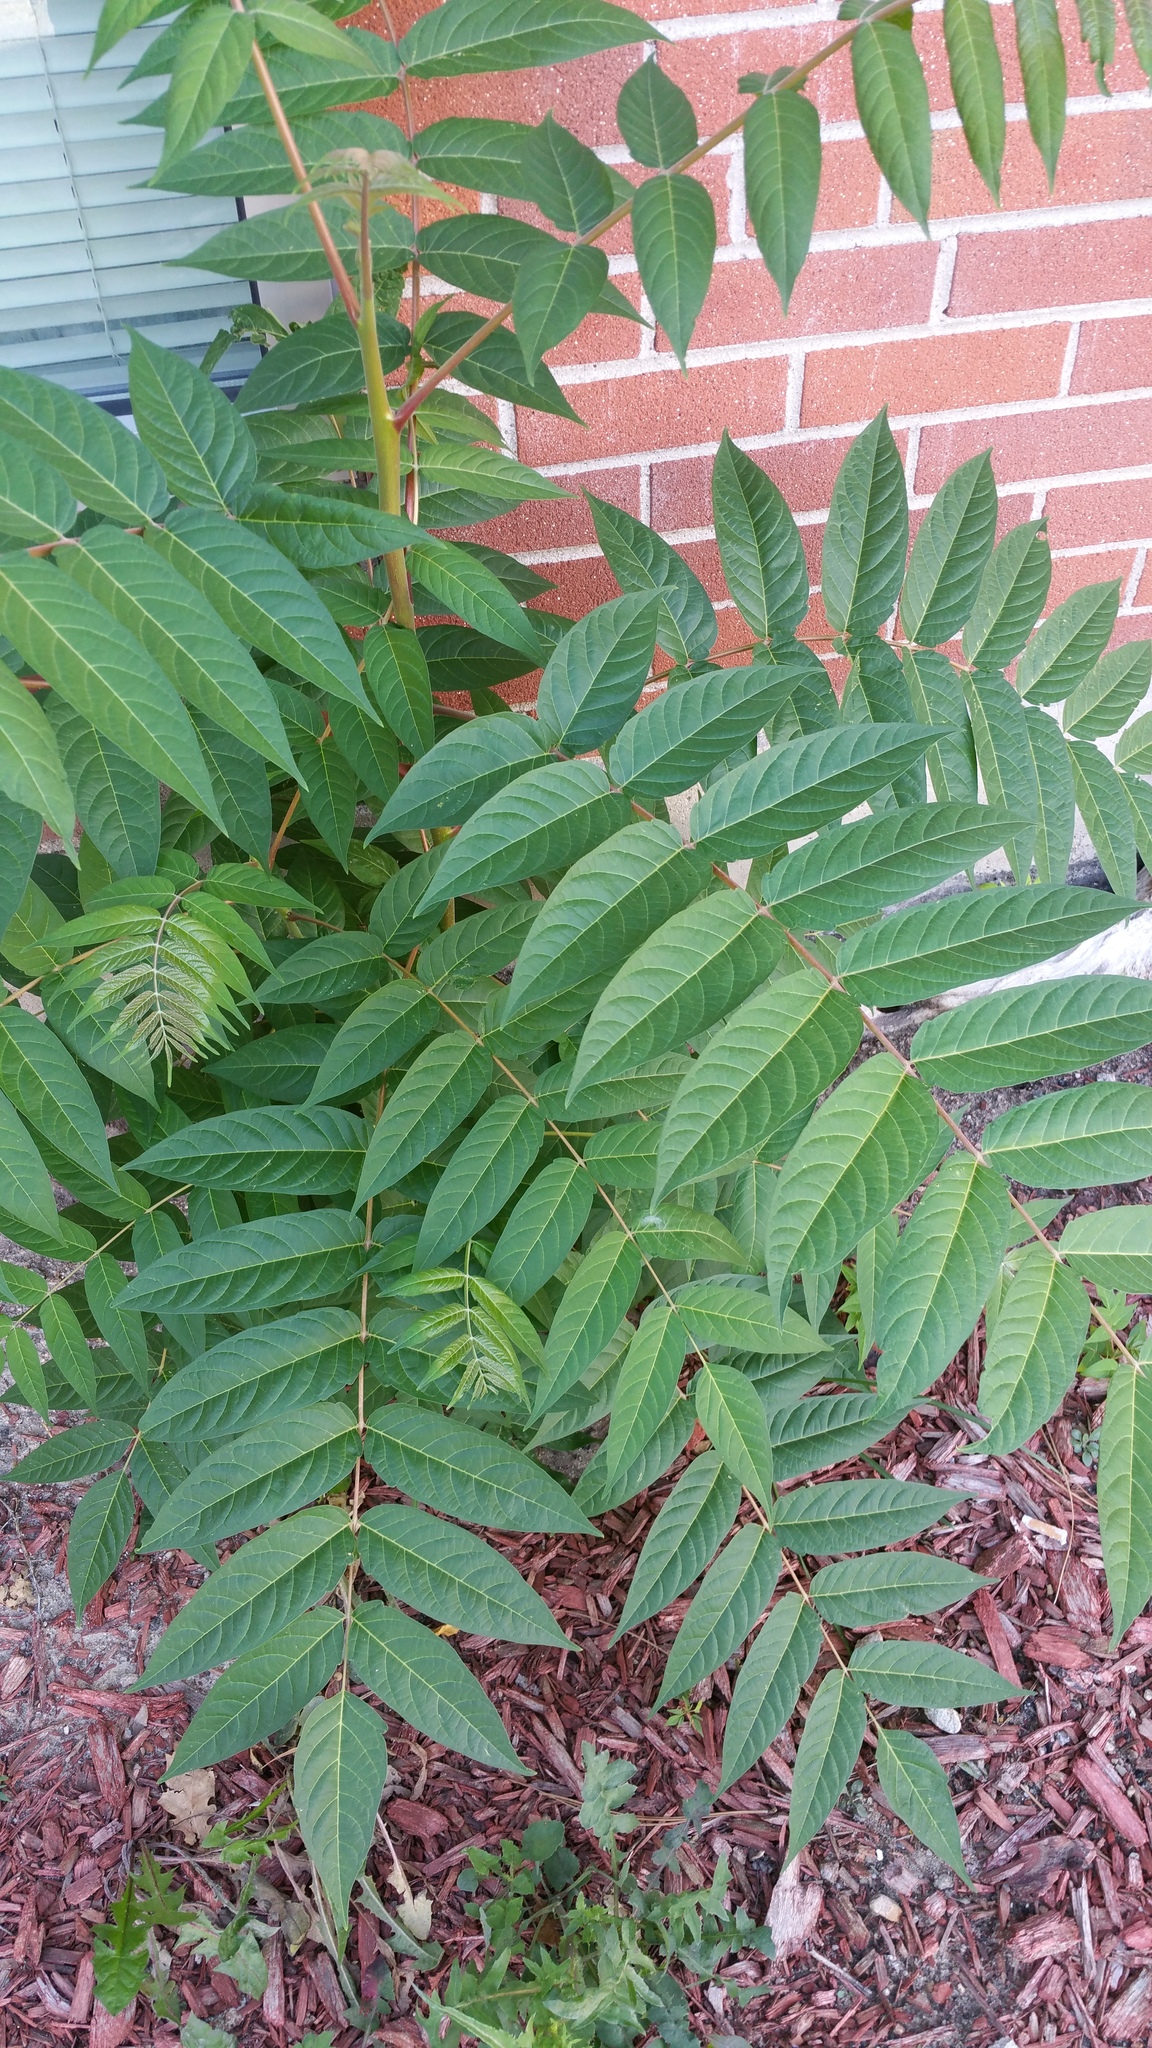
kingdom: Plantae
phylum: Tracheophyta
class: Magnoliopsida
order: Sapindales
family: Simaroubaceae
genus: Ailanthus
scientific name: Ailanthus altissima
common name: Tree-of-heaven
